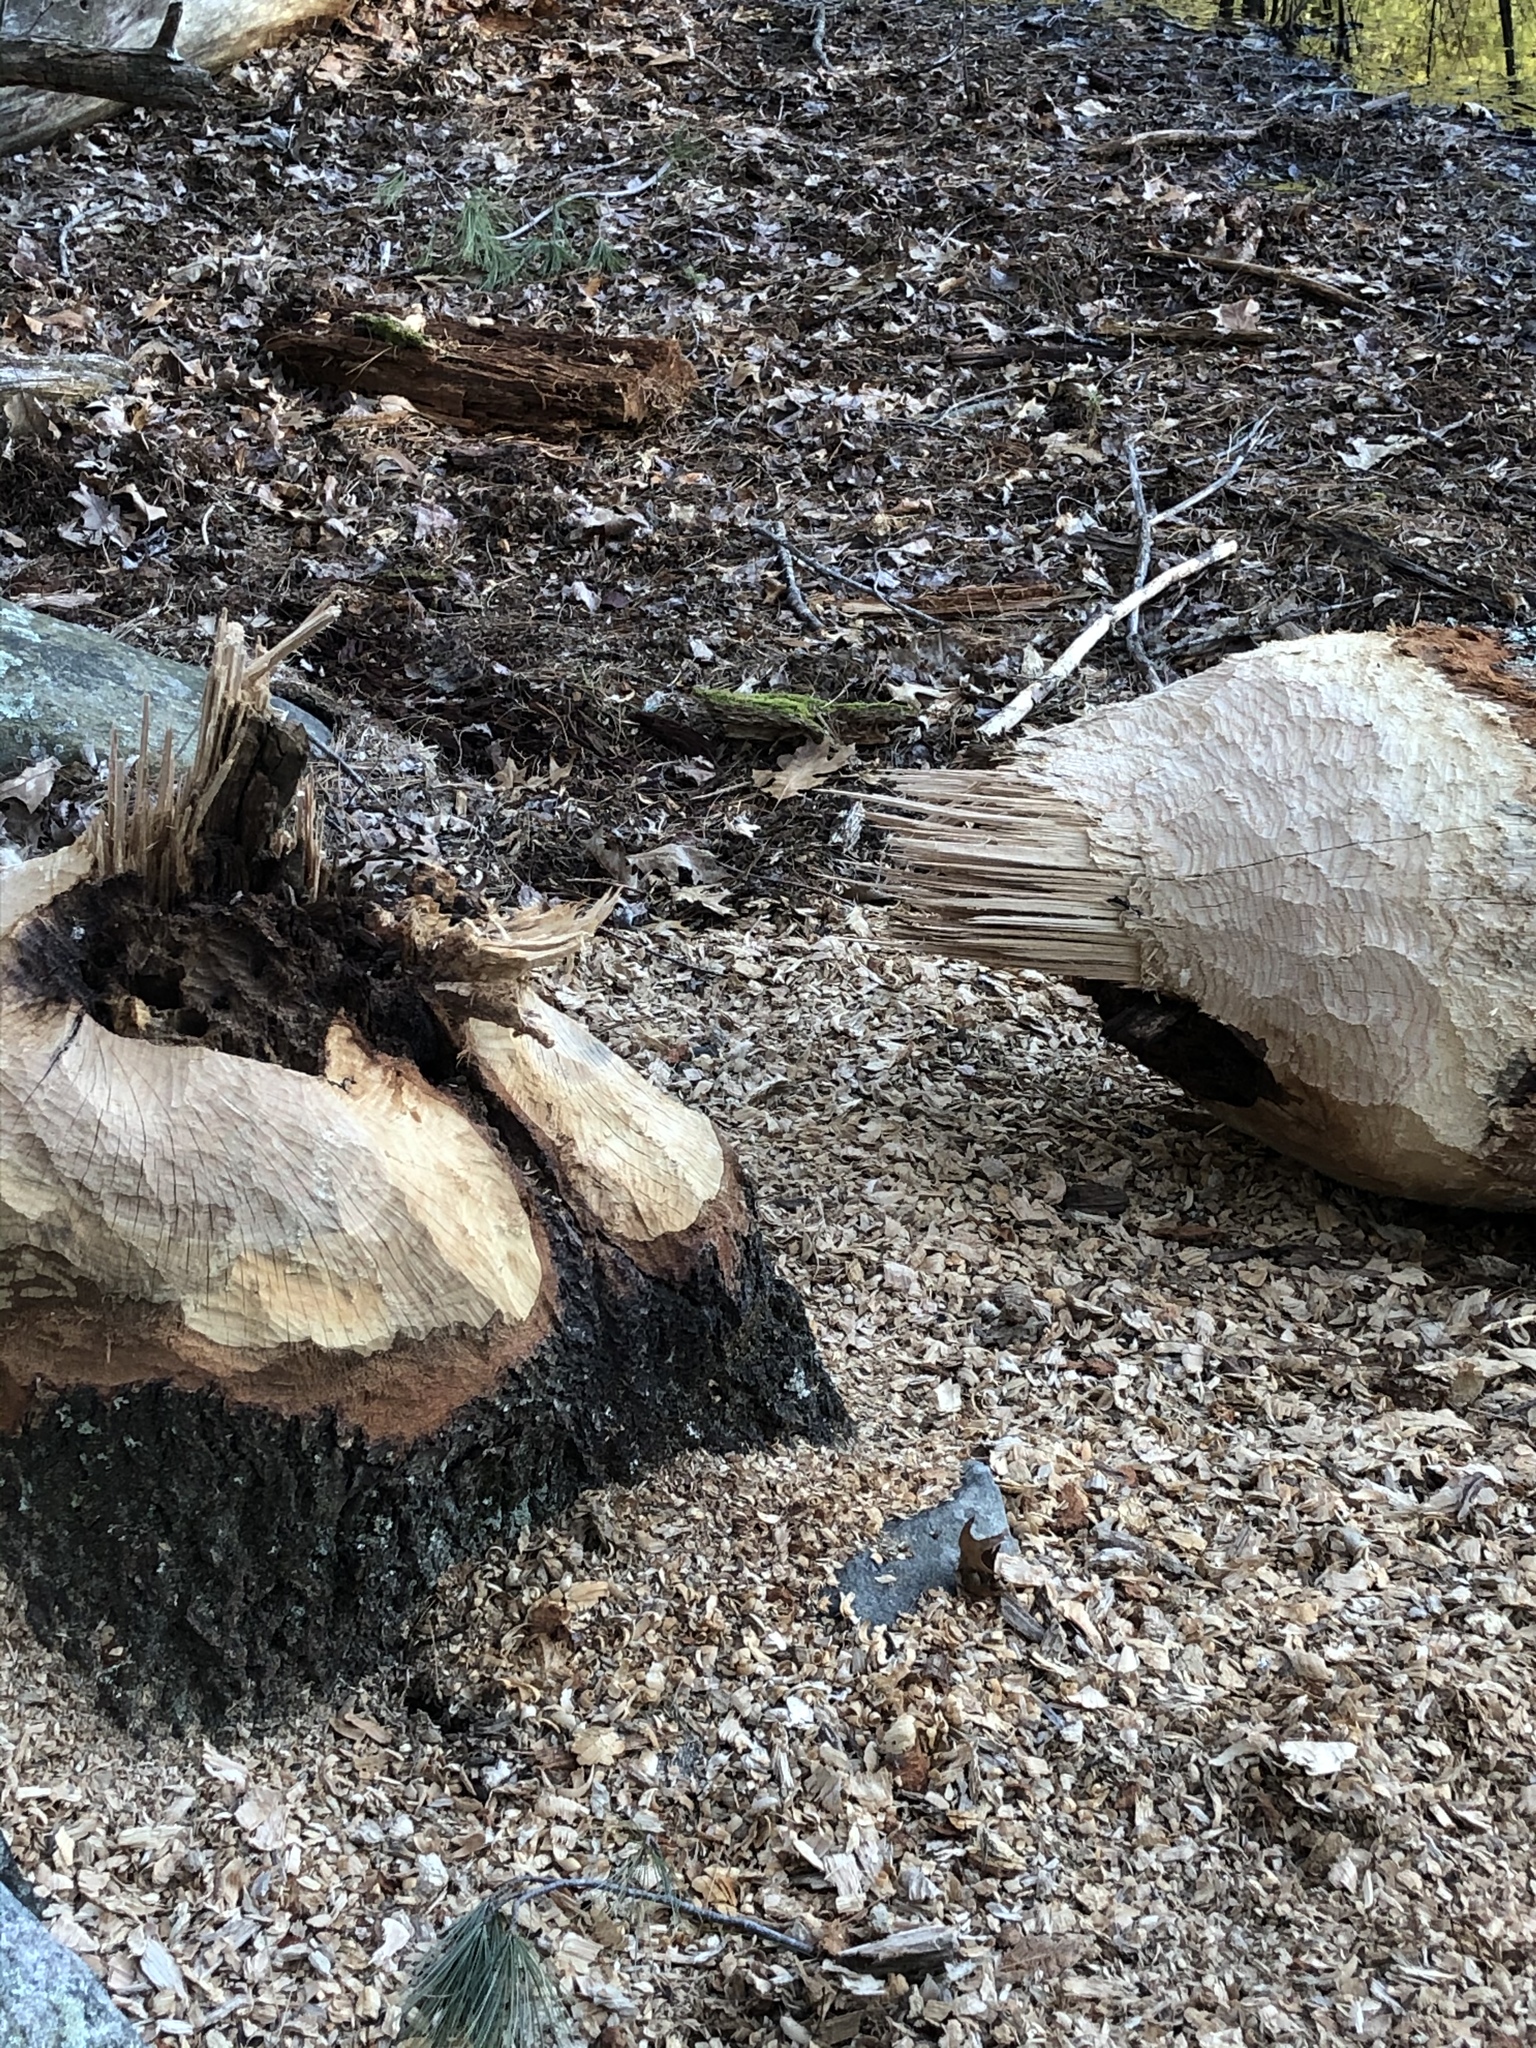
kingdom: Animalia
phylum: Chordata
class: Mammalia
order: Rodentia
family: Castoridae
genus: Castor
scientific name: Castor canadensis
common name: American beaver
